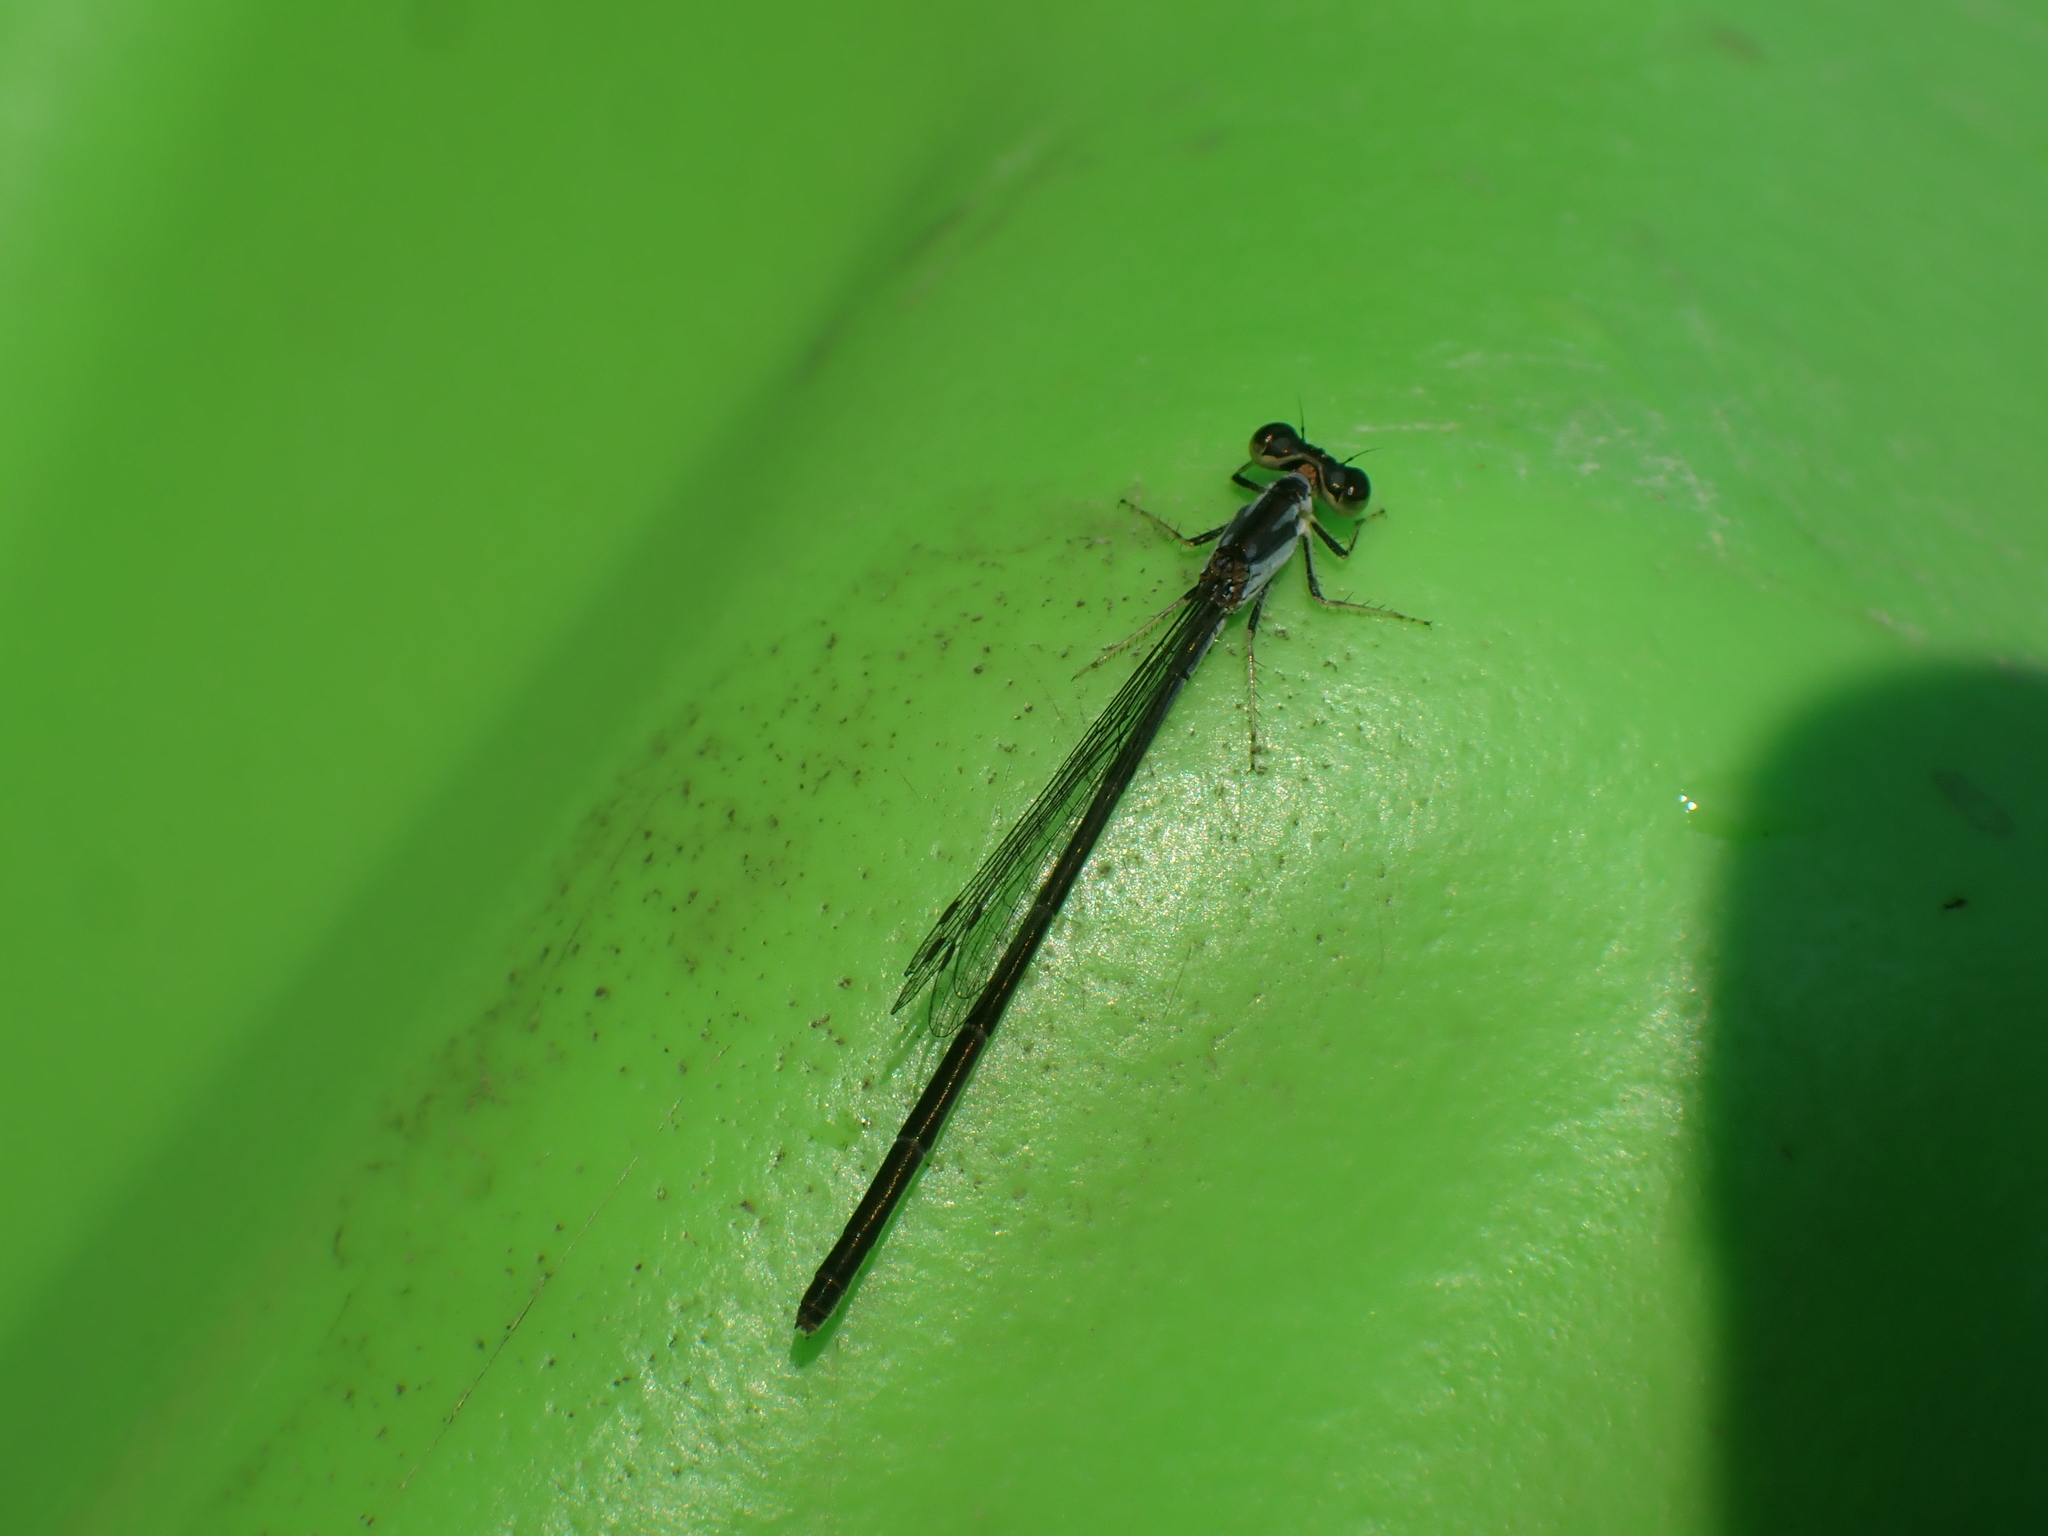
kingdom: Animalia
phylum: Arthropoda
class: Insecta
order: Odonata
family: Coenagrionidae
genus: Ischnura
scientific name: Ischnura posita
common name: Fragile forktail
